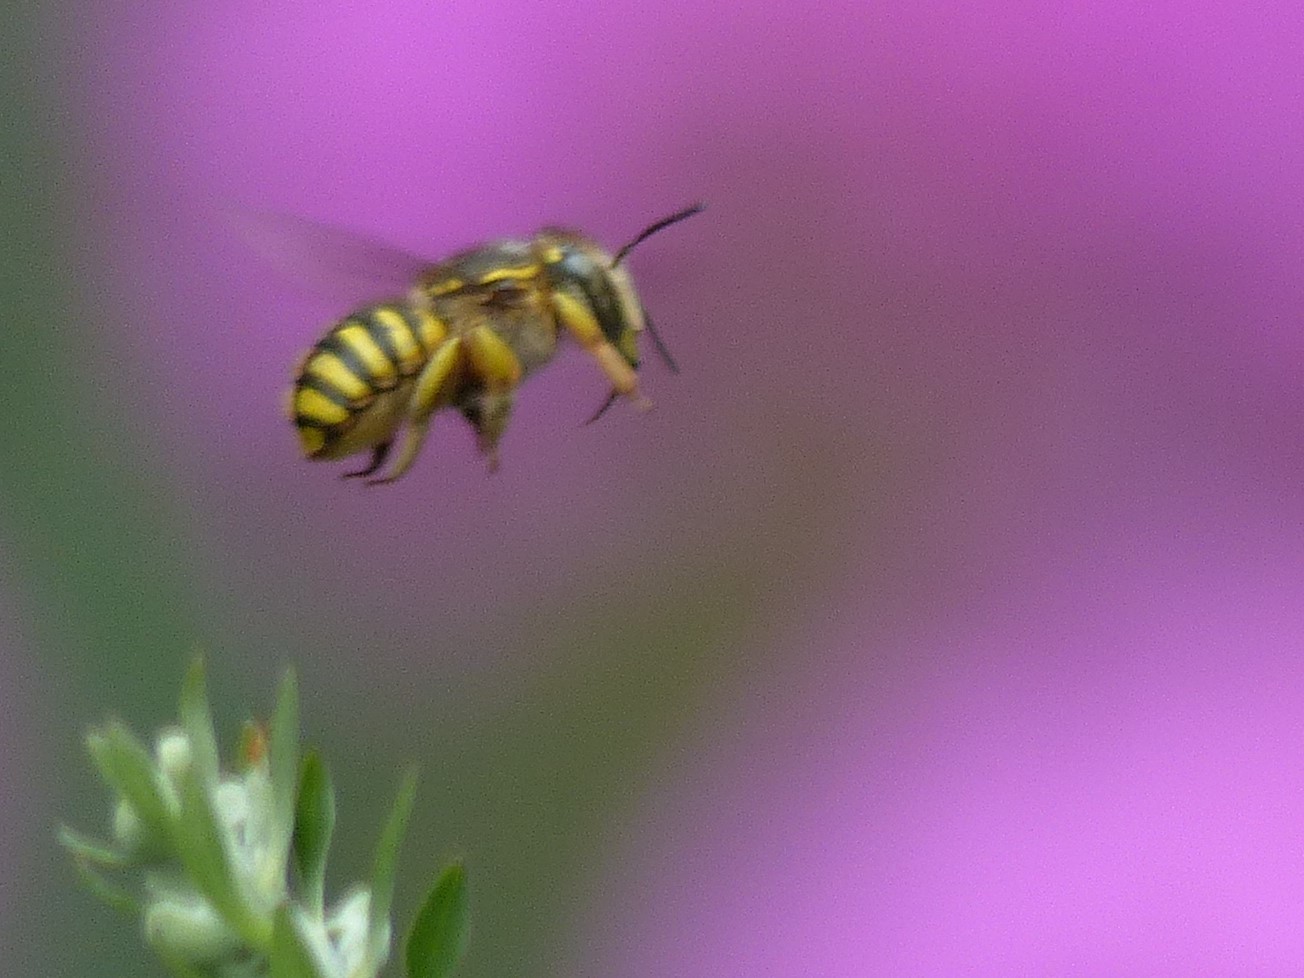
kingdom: Animalia
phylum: Arthropoda
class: Insecta
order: Hymenoptera
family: Megachilidae
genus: Anthidium
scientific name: Anthidium manicatum
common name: Wool carder bee
